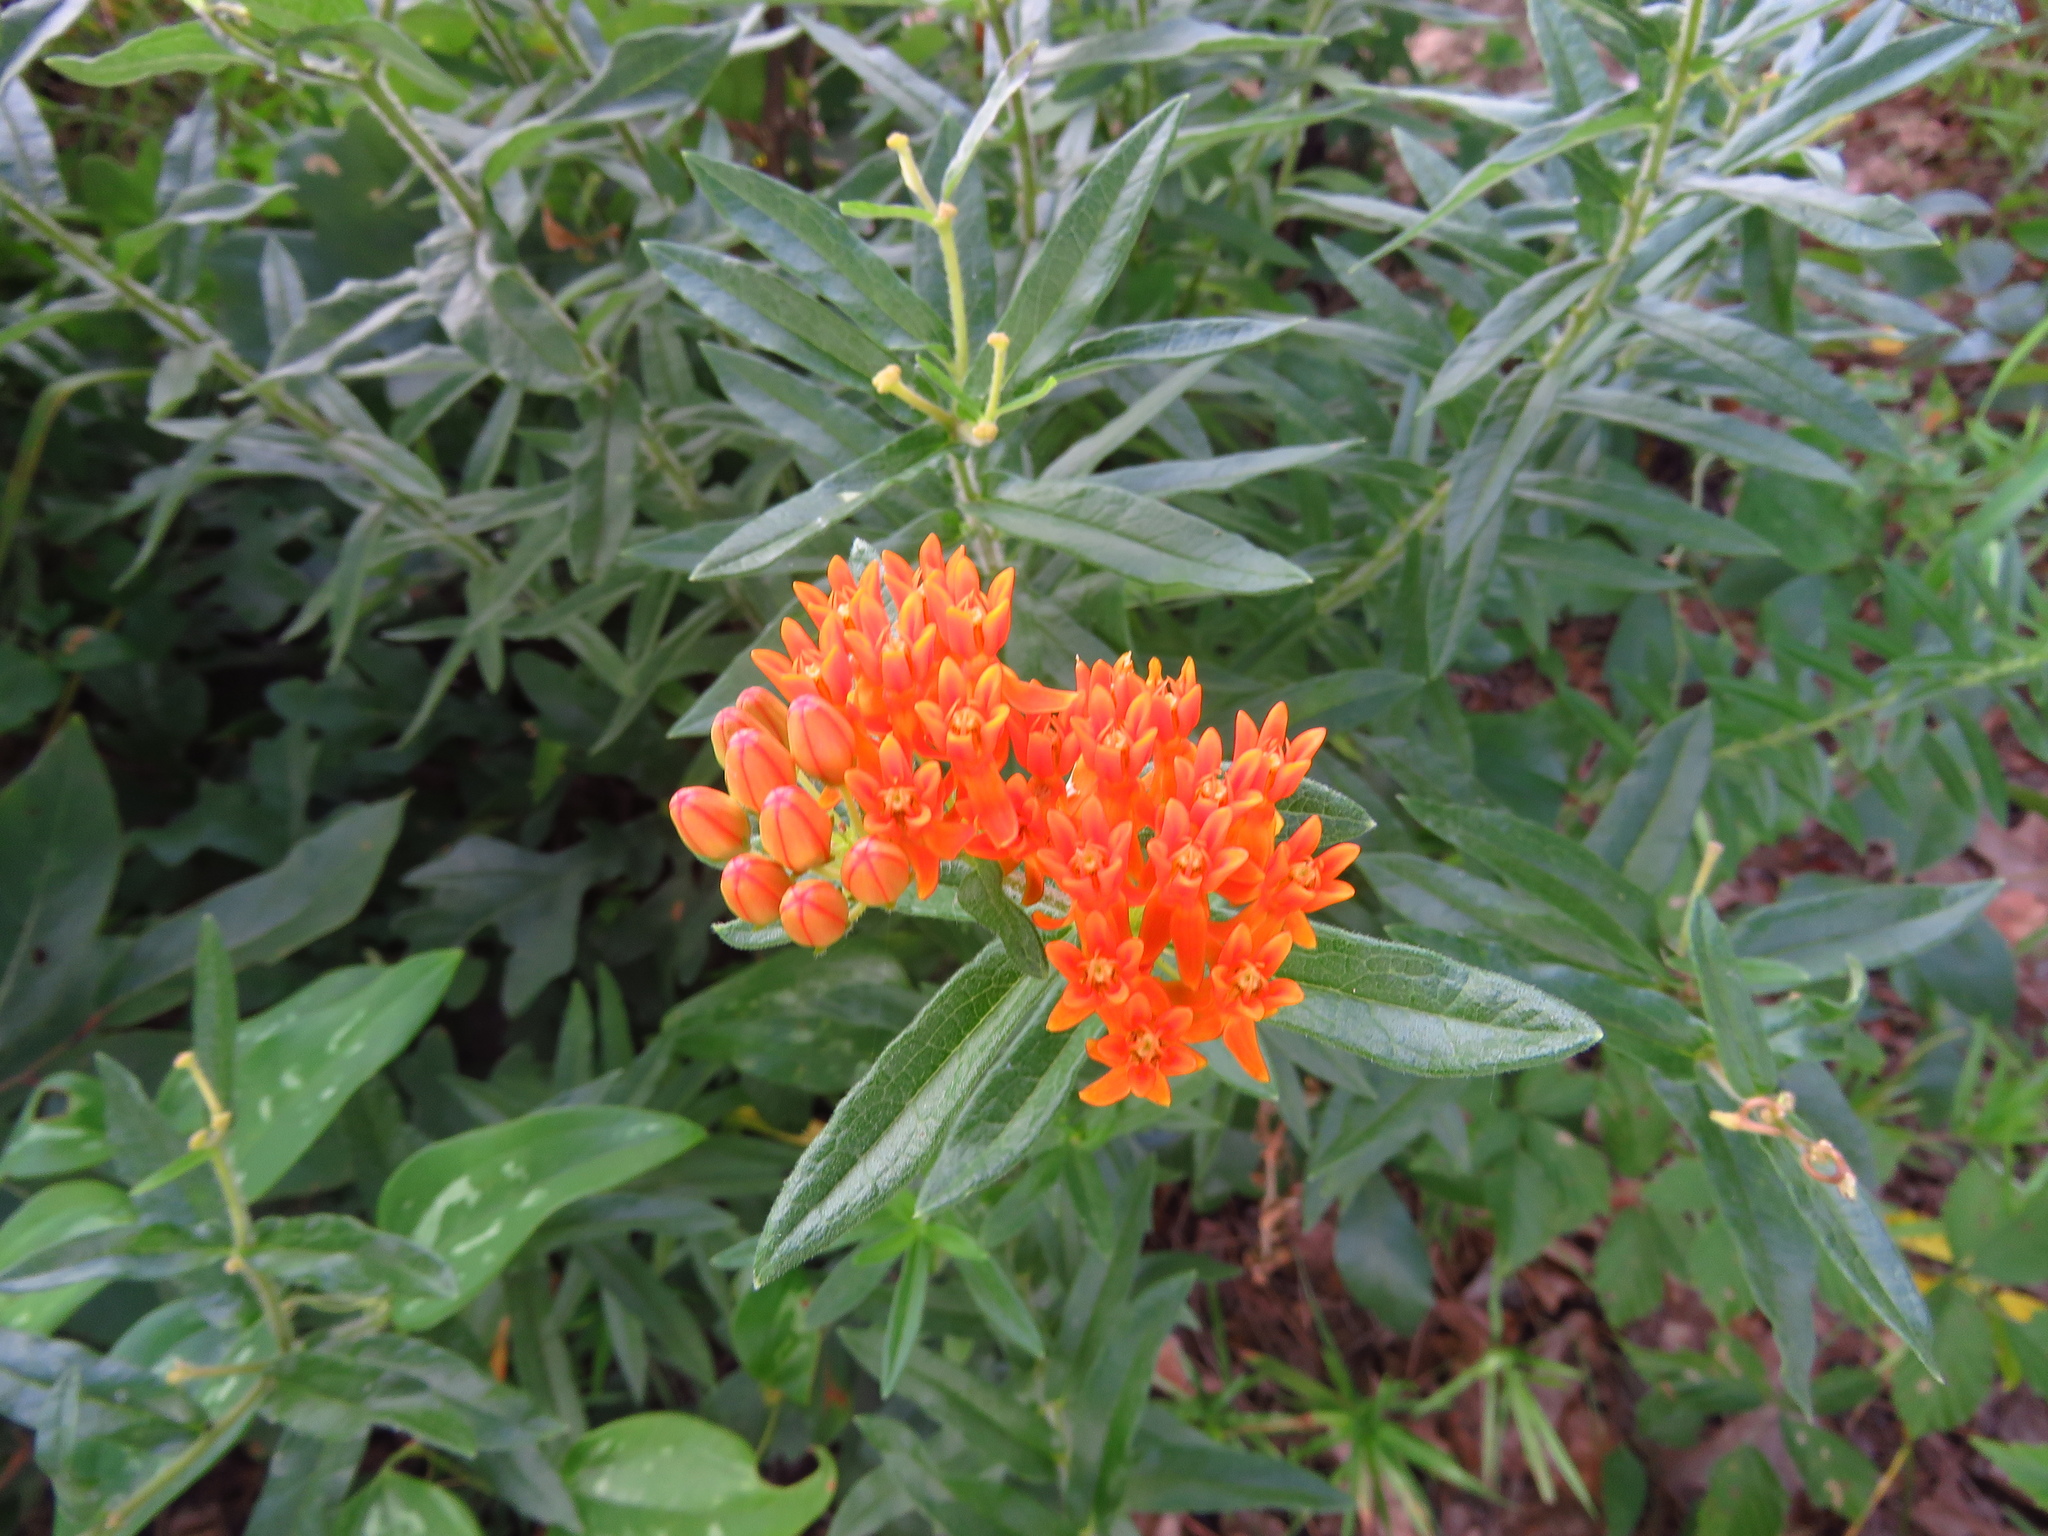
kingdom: Plantae
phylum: Tracheophyta
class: Magnoliopsida
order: Gentianales
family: Apocynaceae
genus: Asclepias
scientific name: Asclepias tuberosa
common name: Butterfly milkweed
